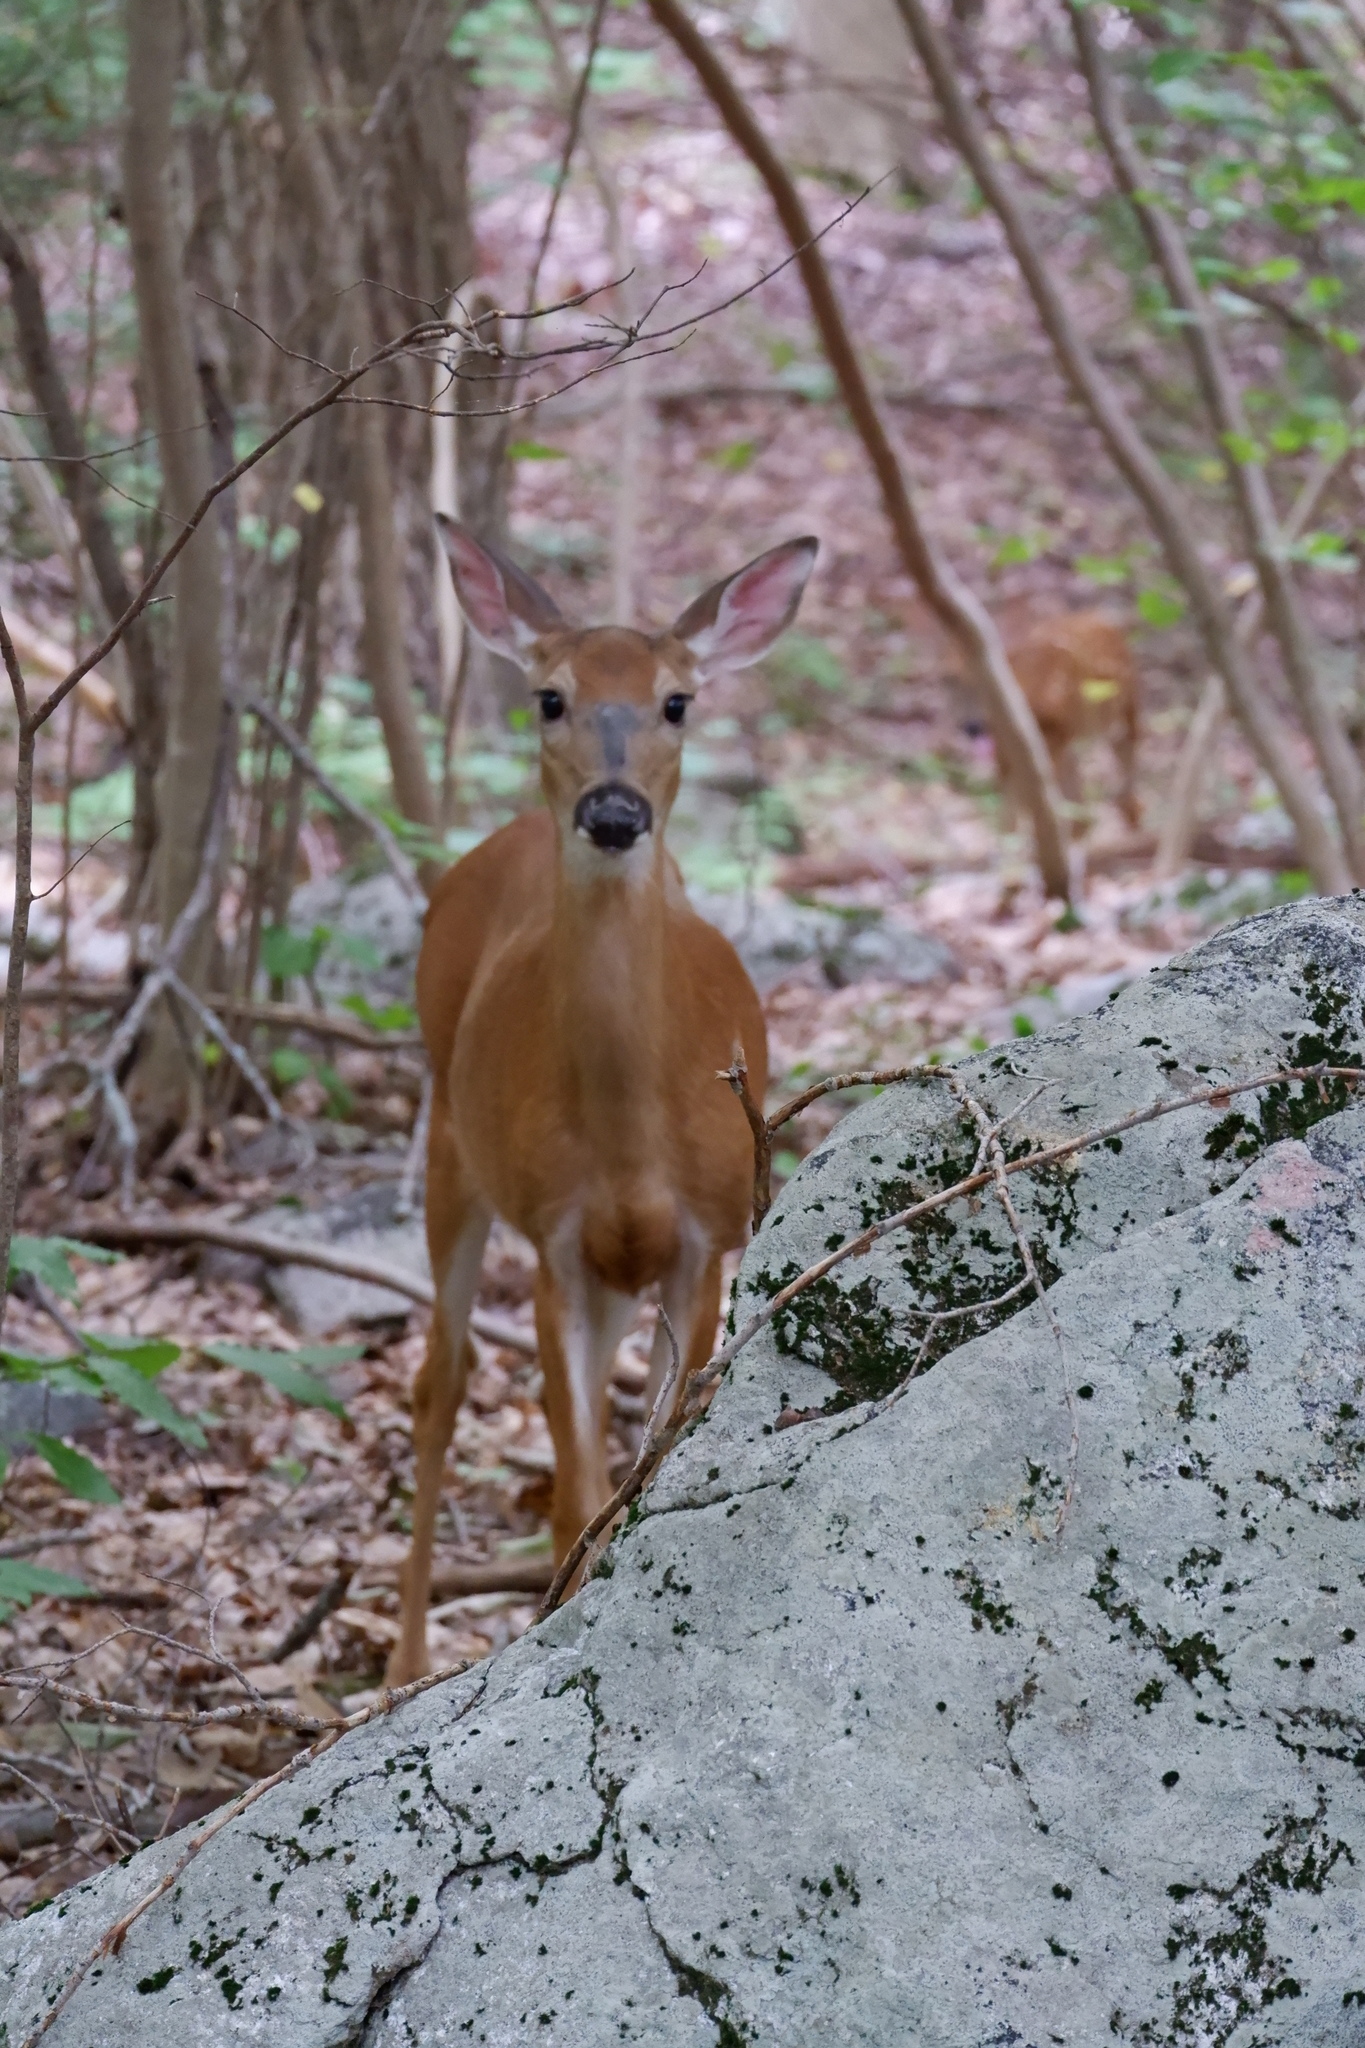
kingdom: Animalia
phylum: Chordata
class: Mammalia
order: Artiodactyla
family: Cervidae
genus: Odocoileus
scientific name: Odocoileus virginianus
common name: White-tailed deer
